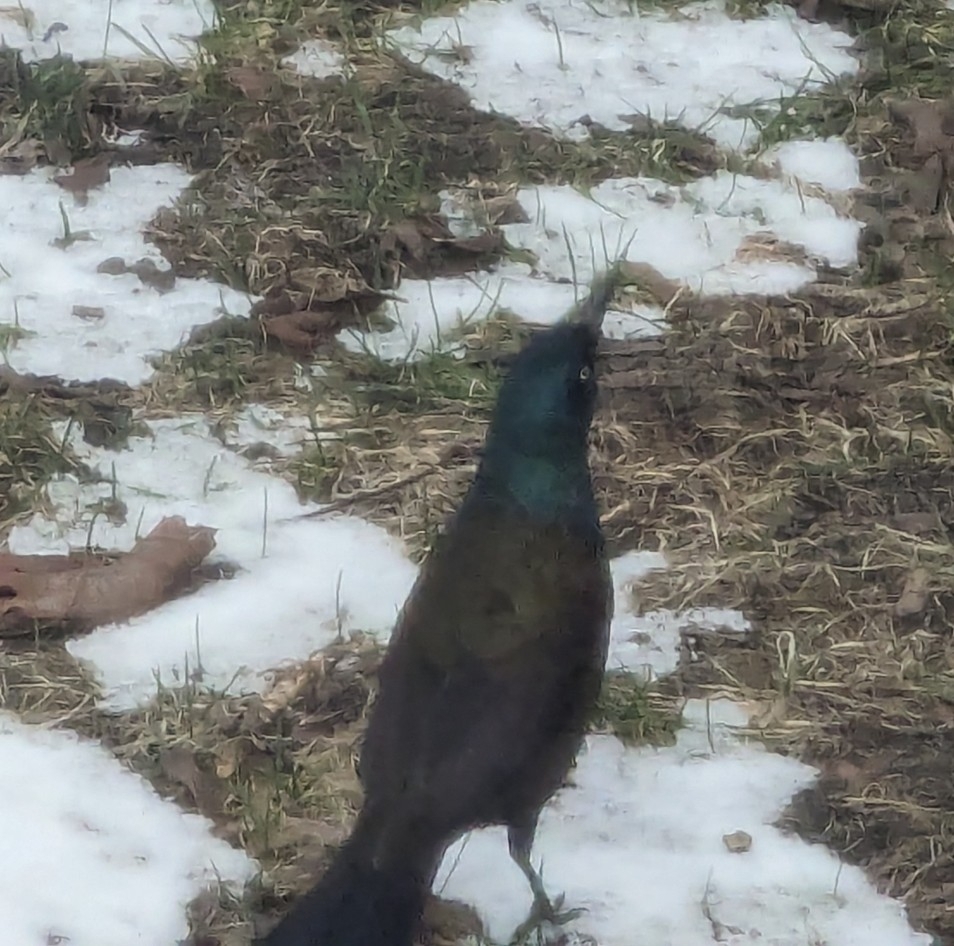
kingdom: Animalia
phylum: Chordata
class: Aves
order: Passeriformes
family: Icteridae
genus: Quiscalus
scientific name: Quiscalus quiscula
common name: Common grackle
